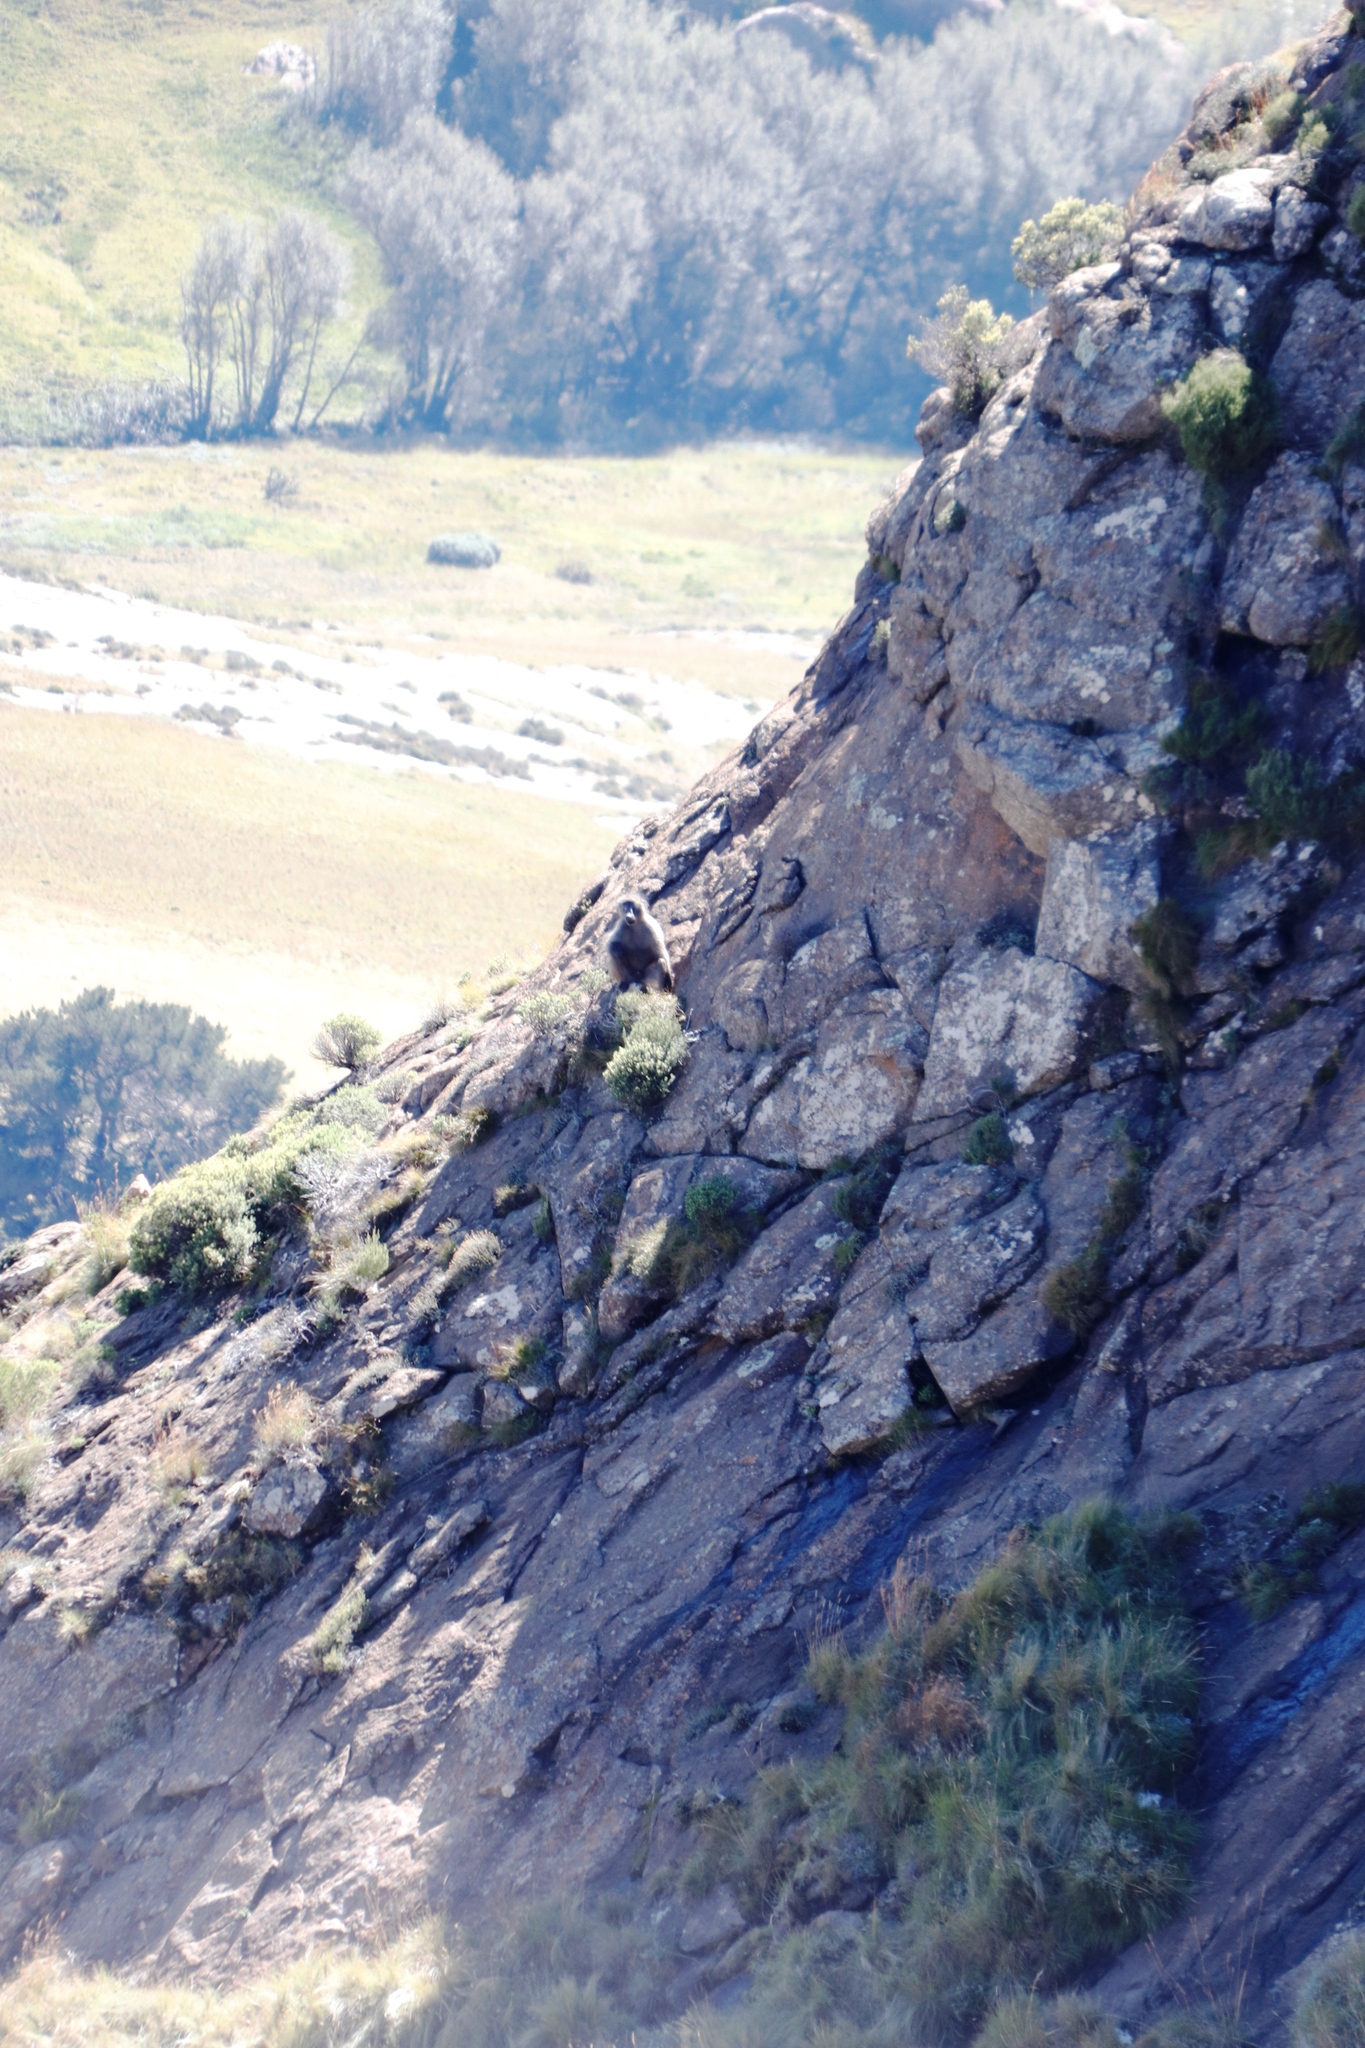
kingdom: Animalia
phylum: Chordata
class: Mammalia
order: Primates
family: Cercopithecidae
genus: Papio
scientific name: Papio ursinus
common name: Chacma baboon
